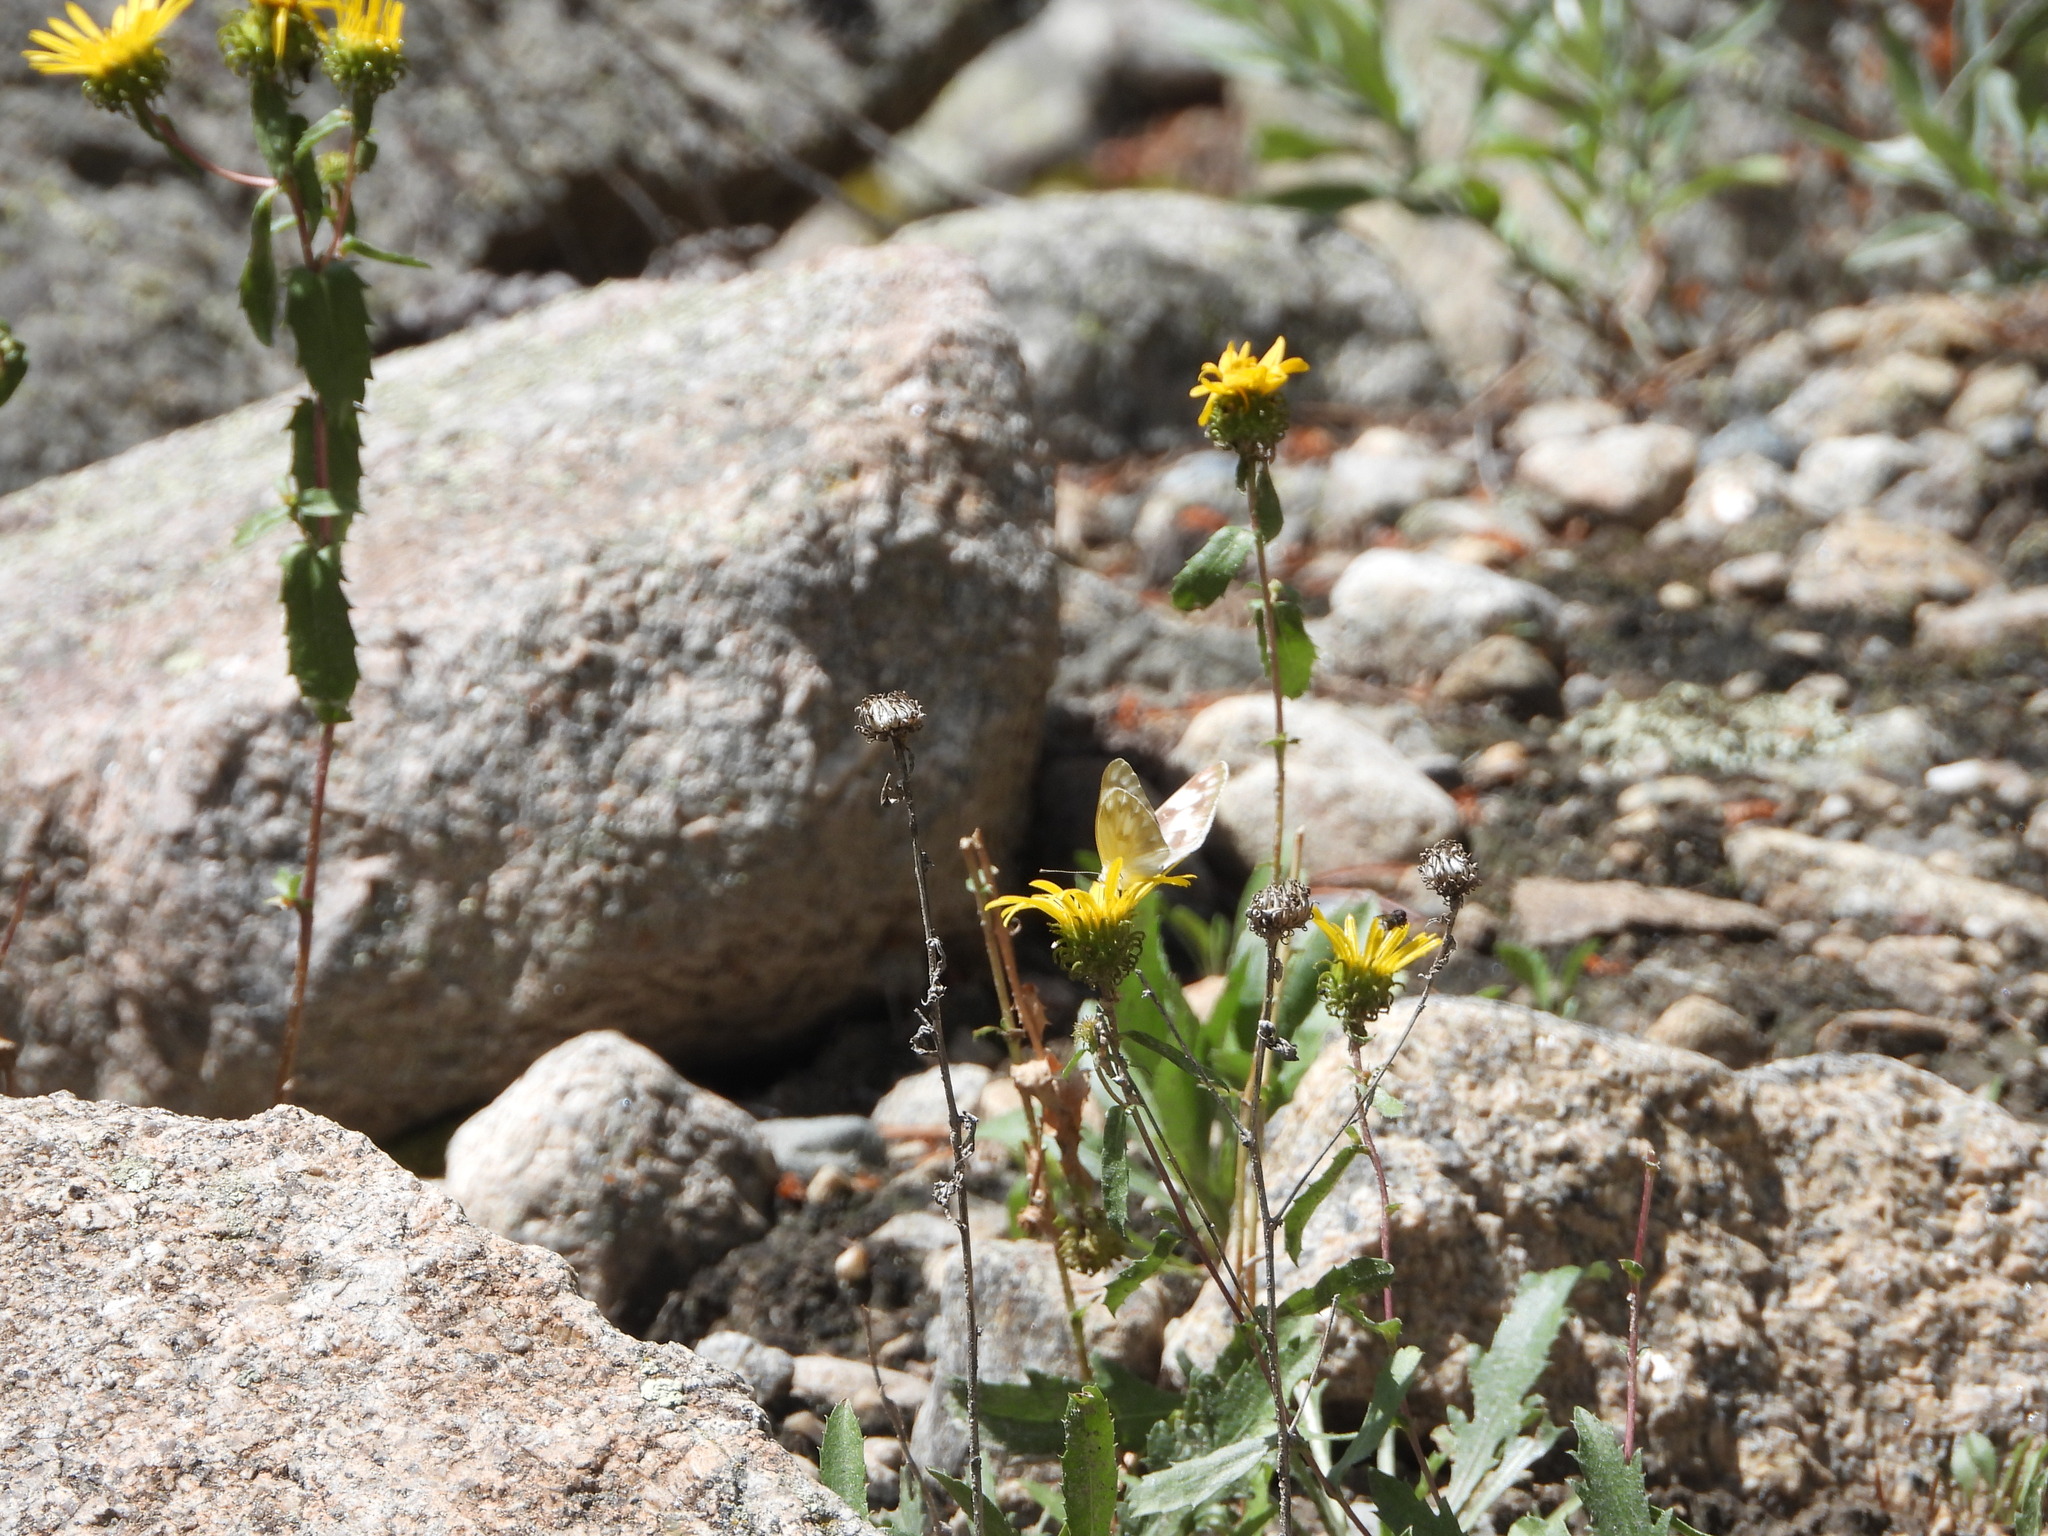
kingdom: Animalia
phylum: Arthropoda
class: Insecta
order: Lepidoptera
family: Pieridae
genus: Pontia
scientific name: Pontia protodice
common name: Checkered white
